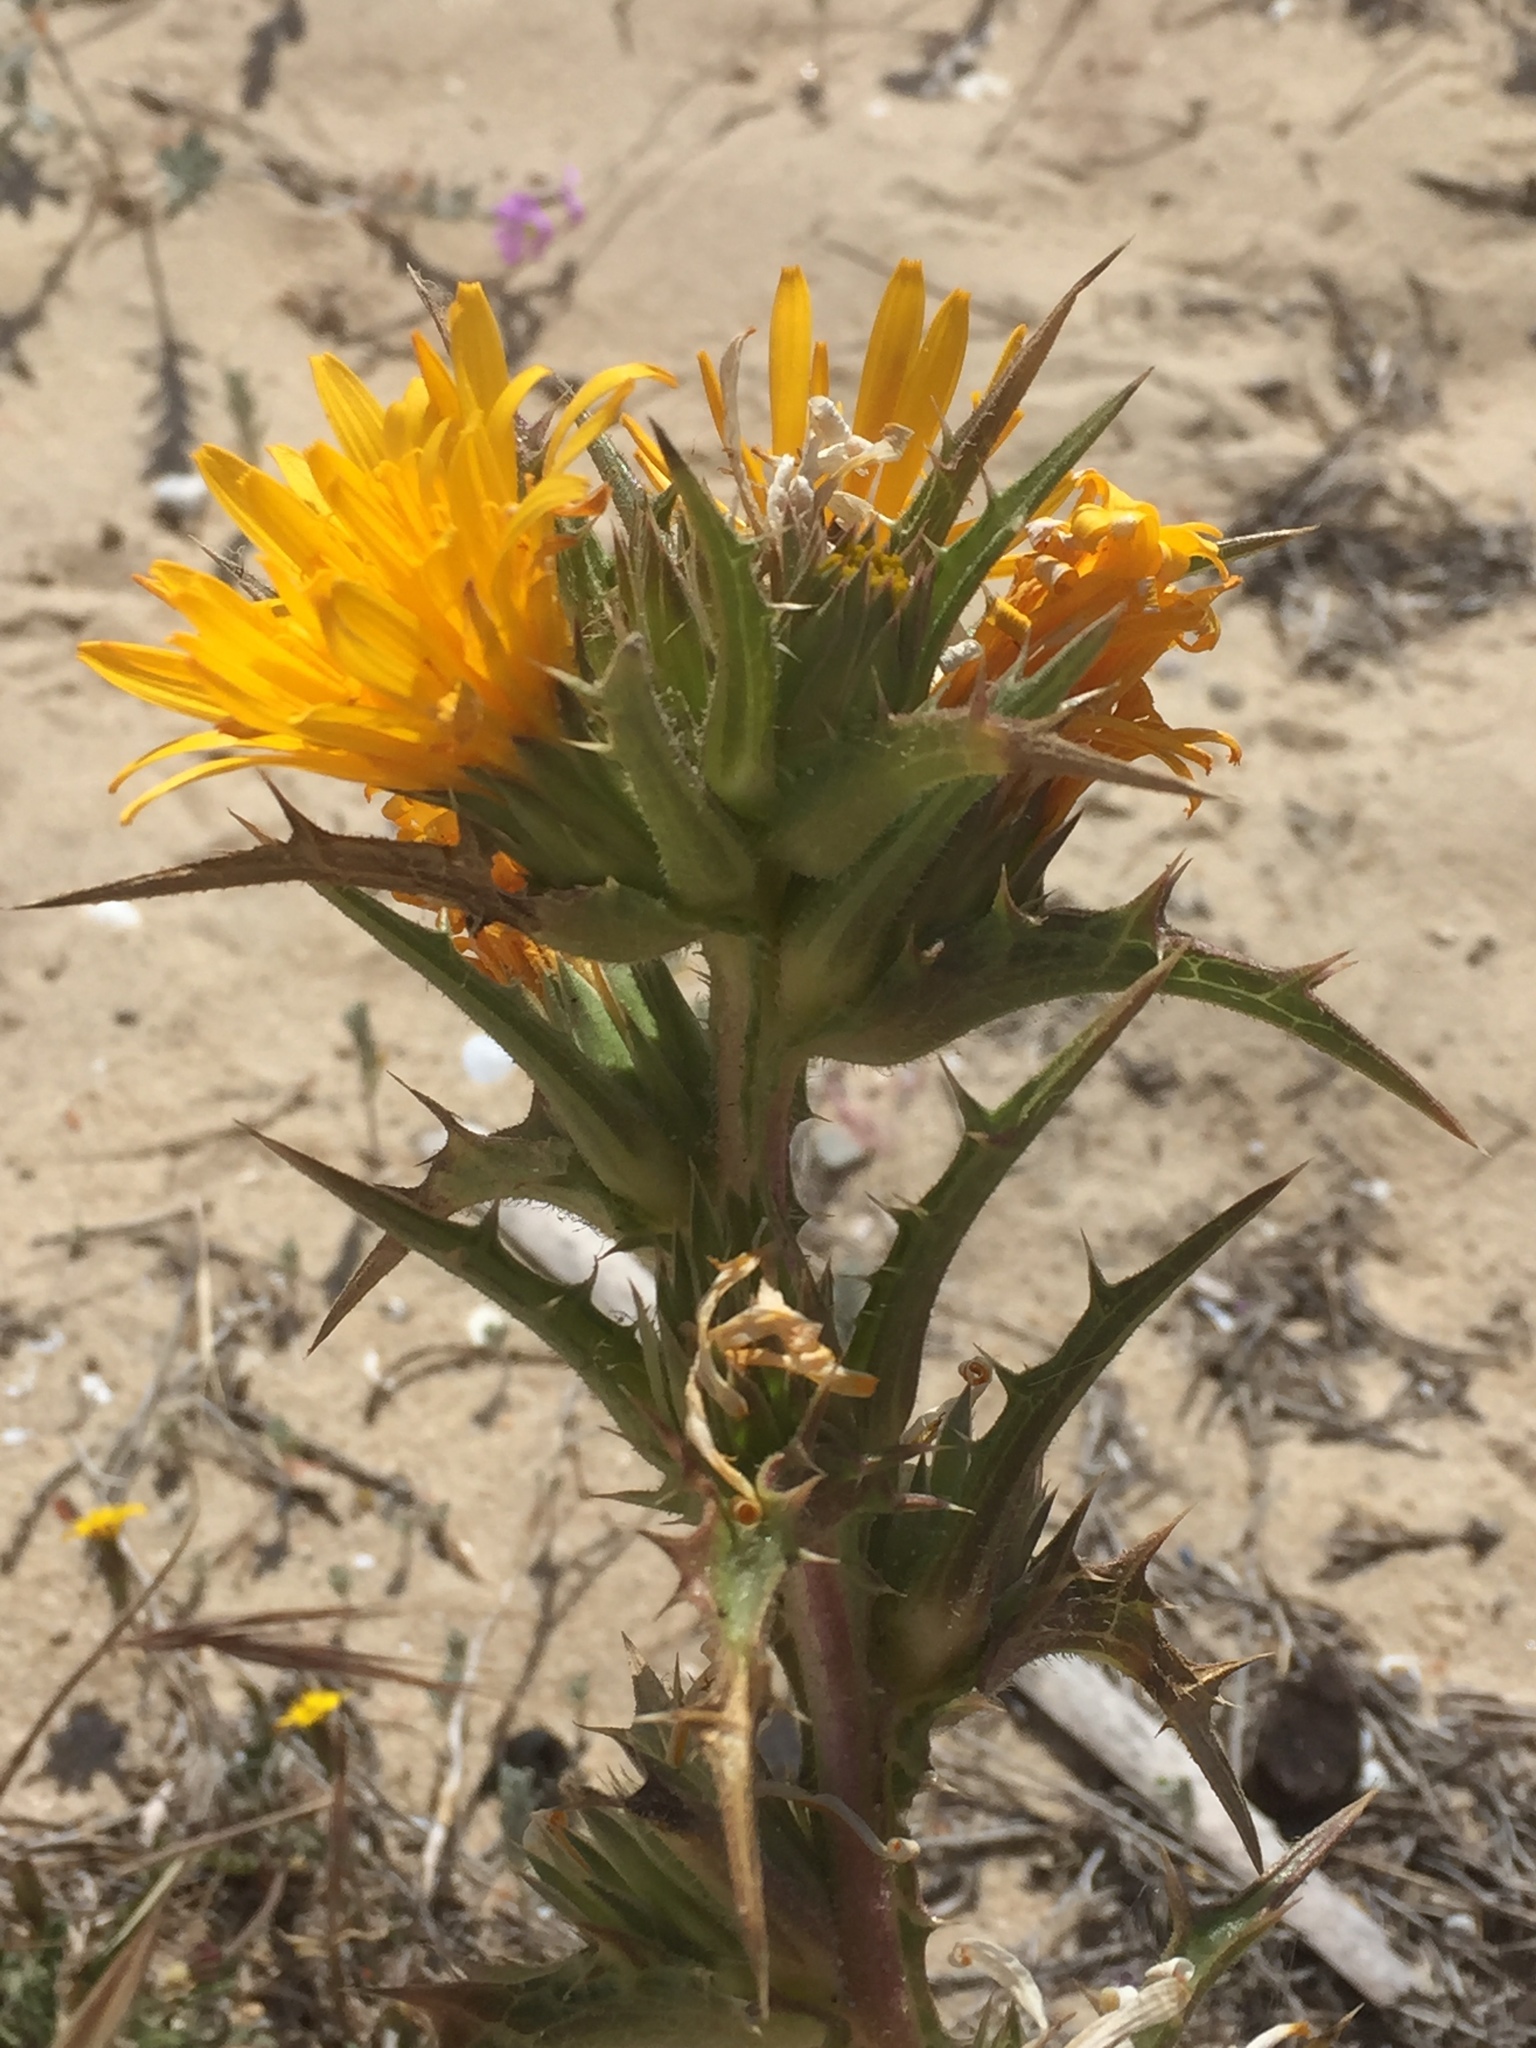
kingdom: Plantae
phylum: Tracheophyta
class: Magnoliopsida
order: Asterales
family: Asteraceae
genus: Scolymus
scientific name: Scolymus hispanicus
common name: Golden thistle
